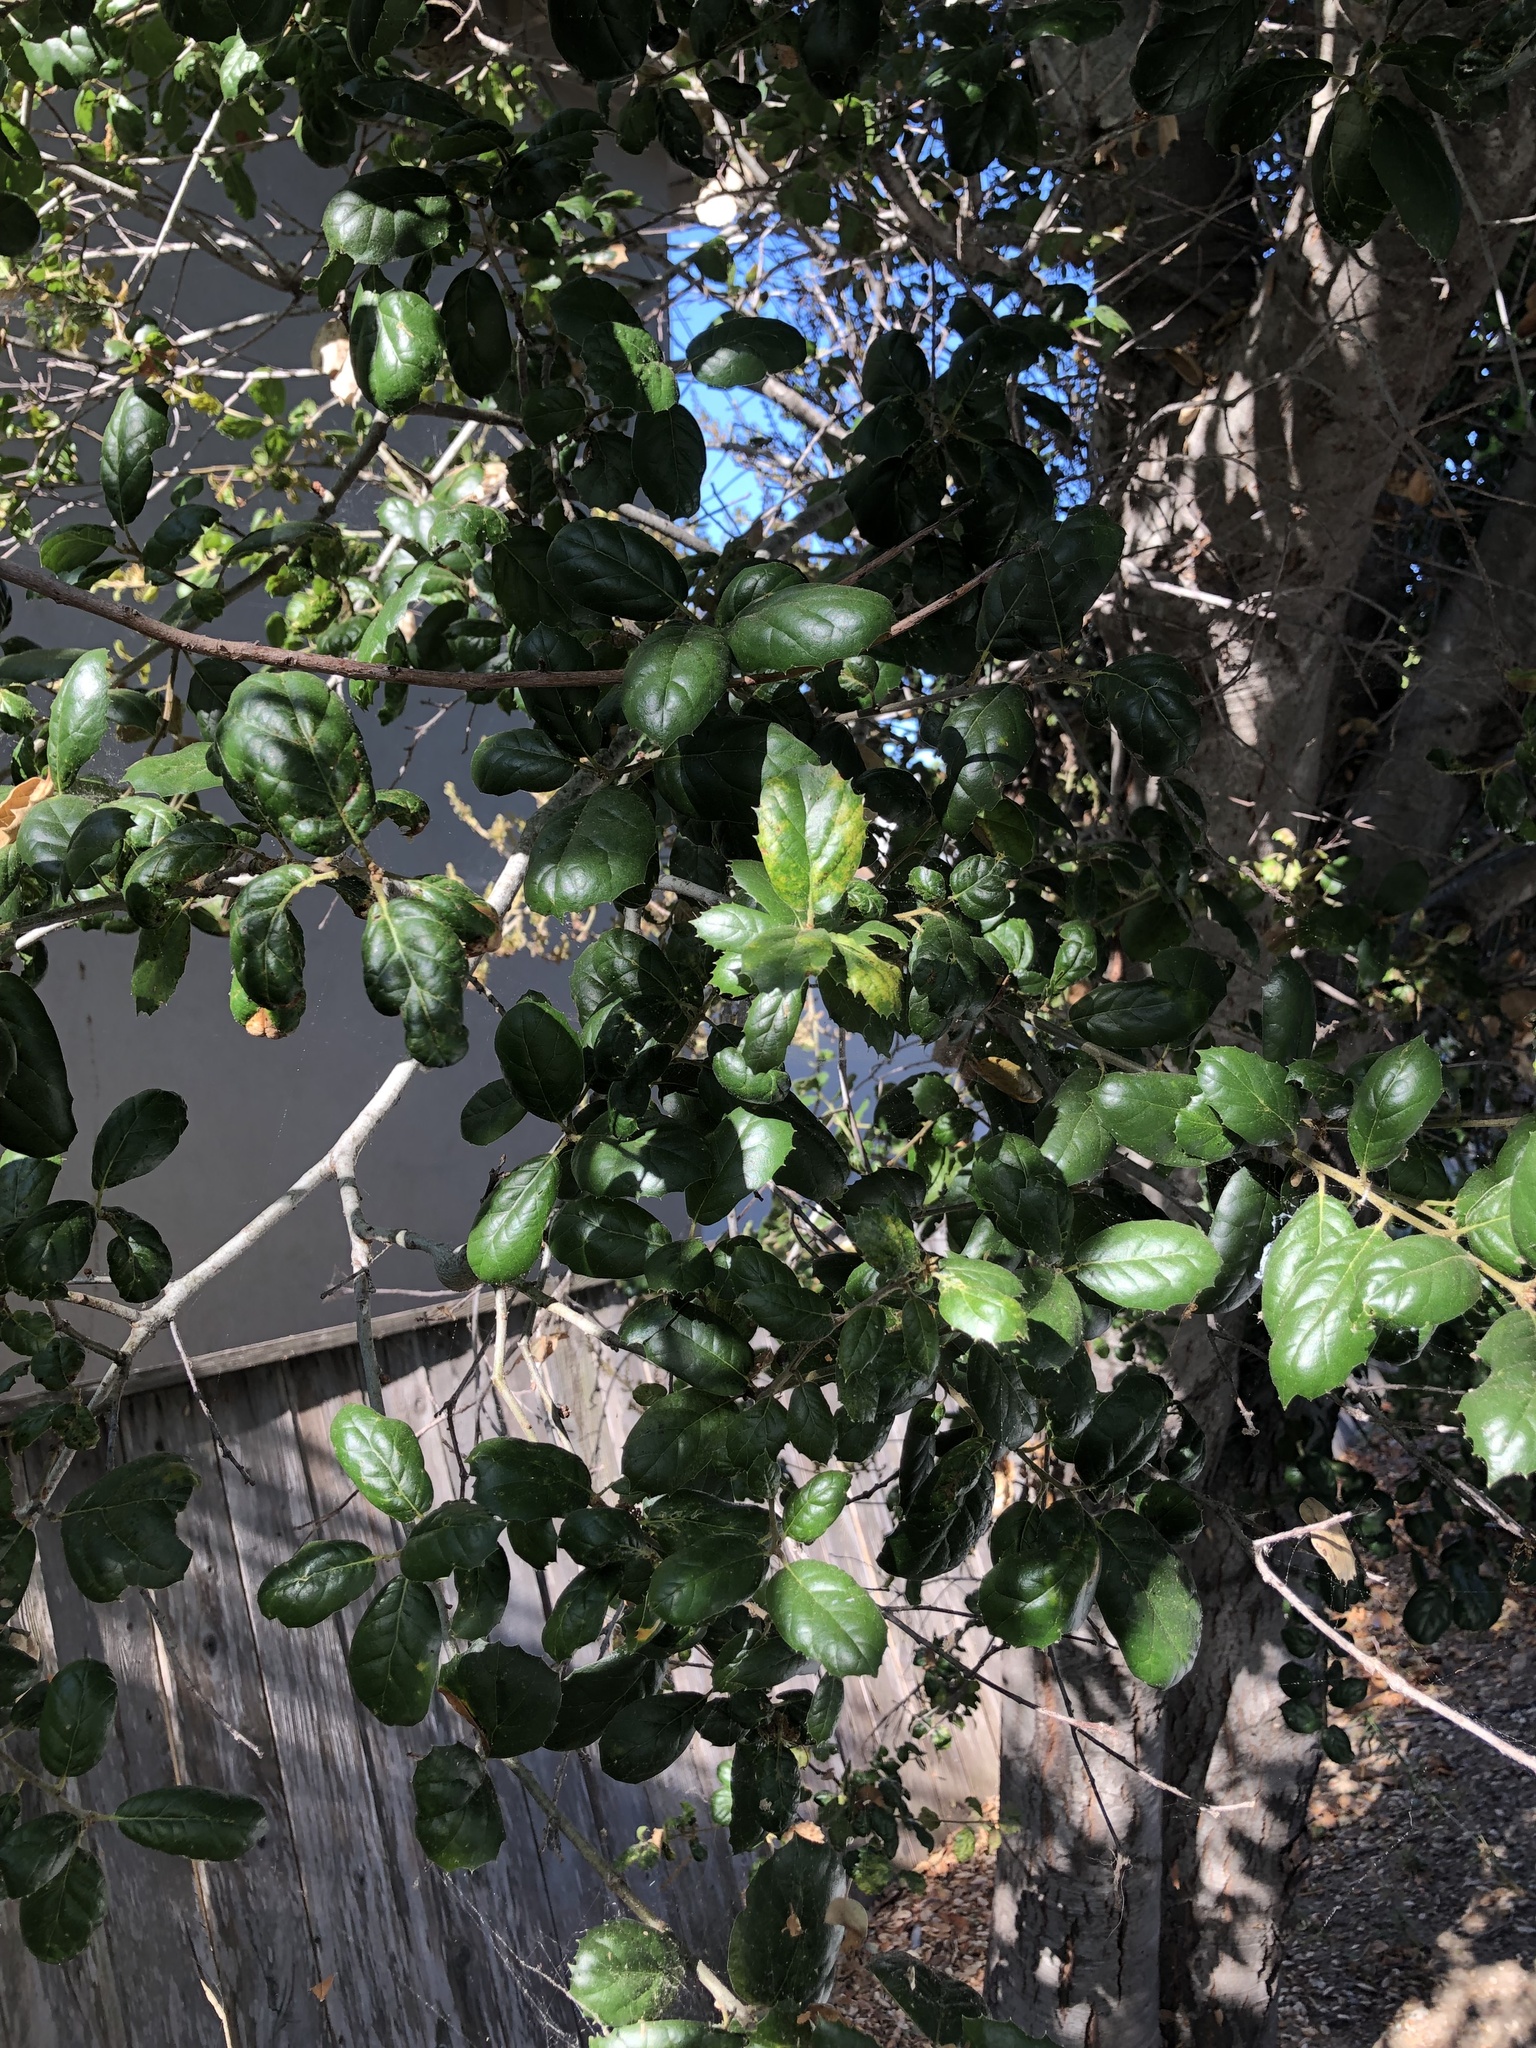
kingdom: Plantae
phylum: Tracheophyta
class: Magnoliopsida
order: Fagales
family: Fagaceae
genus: Quercus
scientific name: Quercus agrifolia
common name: California live oak
